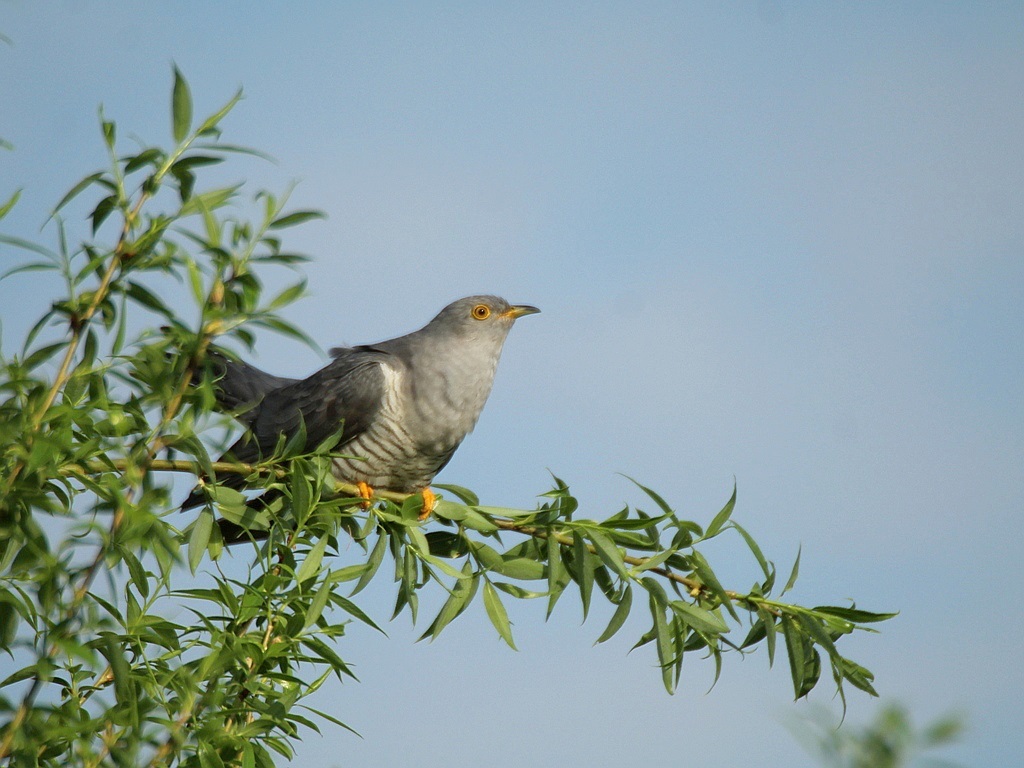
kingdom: Animalia
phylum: Chordata
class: Aves
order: Cuculiformes
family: Cuculidae
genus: Cuculus
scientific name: Cuculus canorus
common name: Common cuckoo
